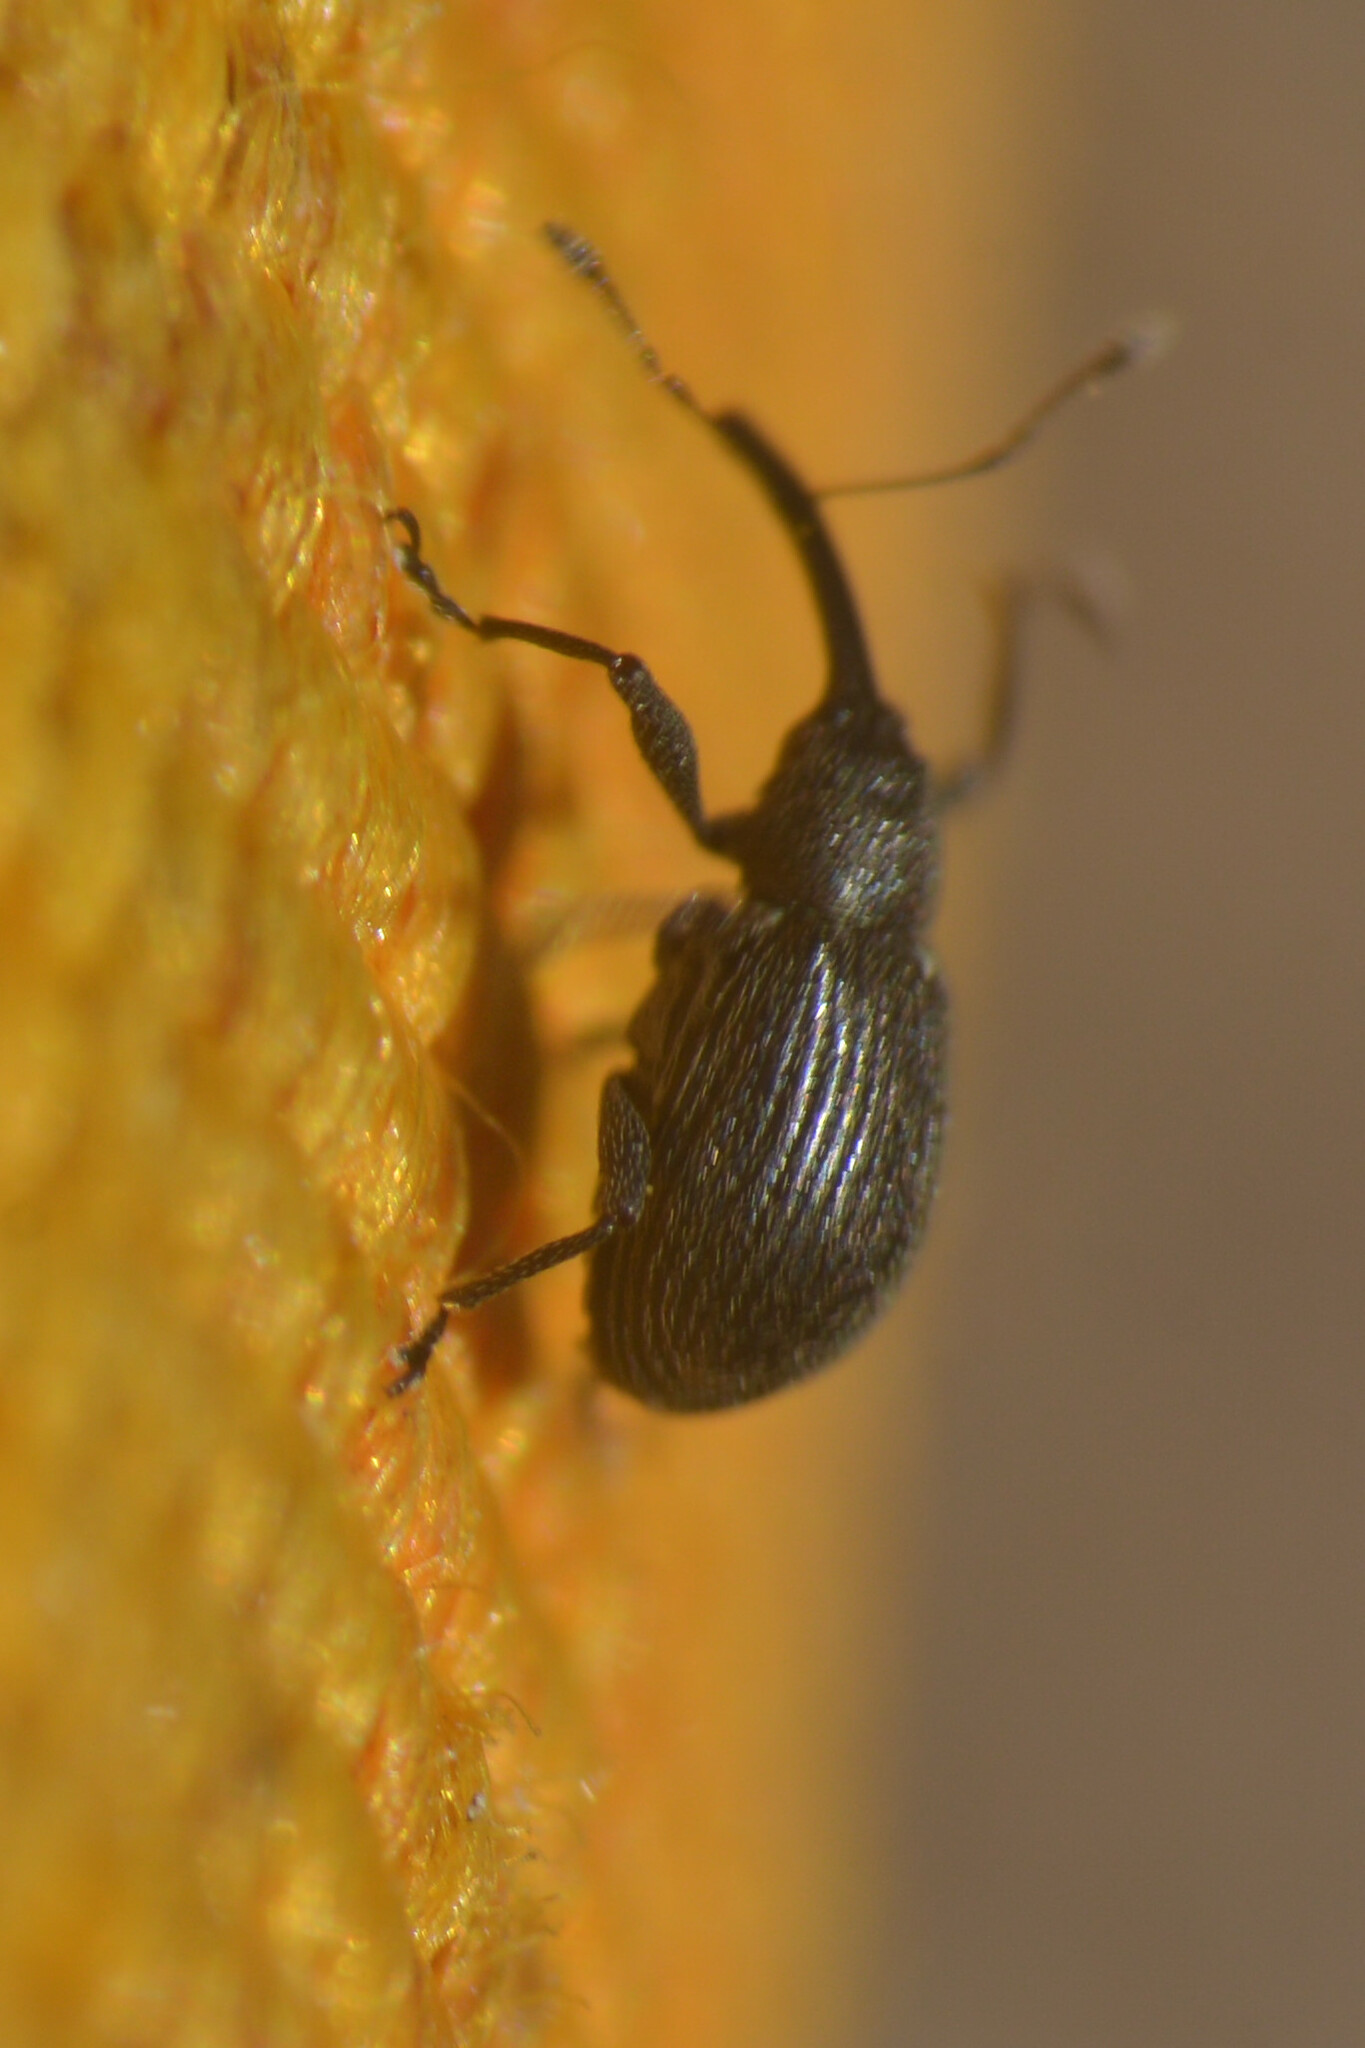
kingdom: Animalia
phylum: Arthropoda
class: Insecta
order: Coleoptera
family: Curculionidae
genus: Anthonomus
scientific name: Anthonomus rubi
